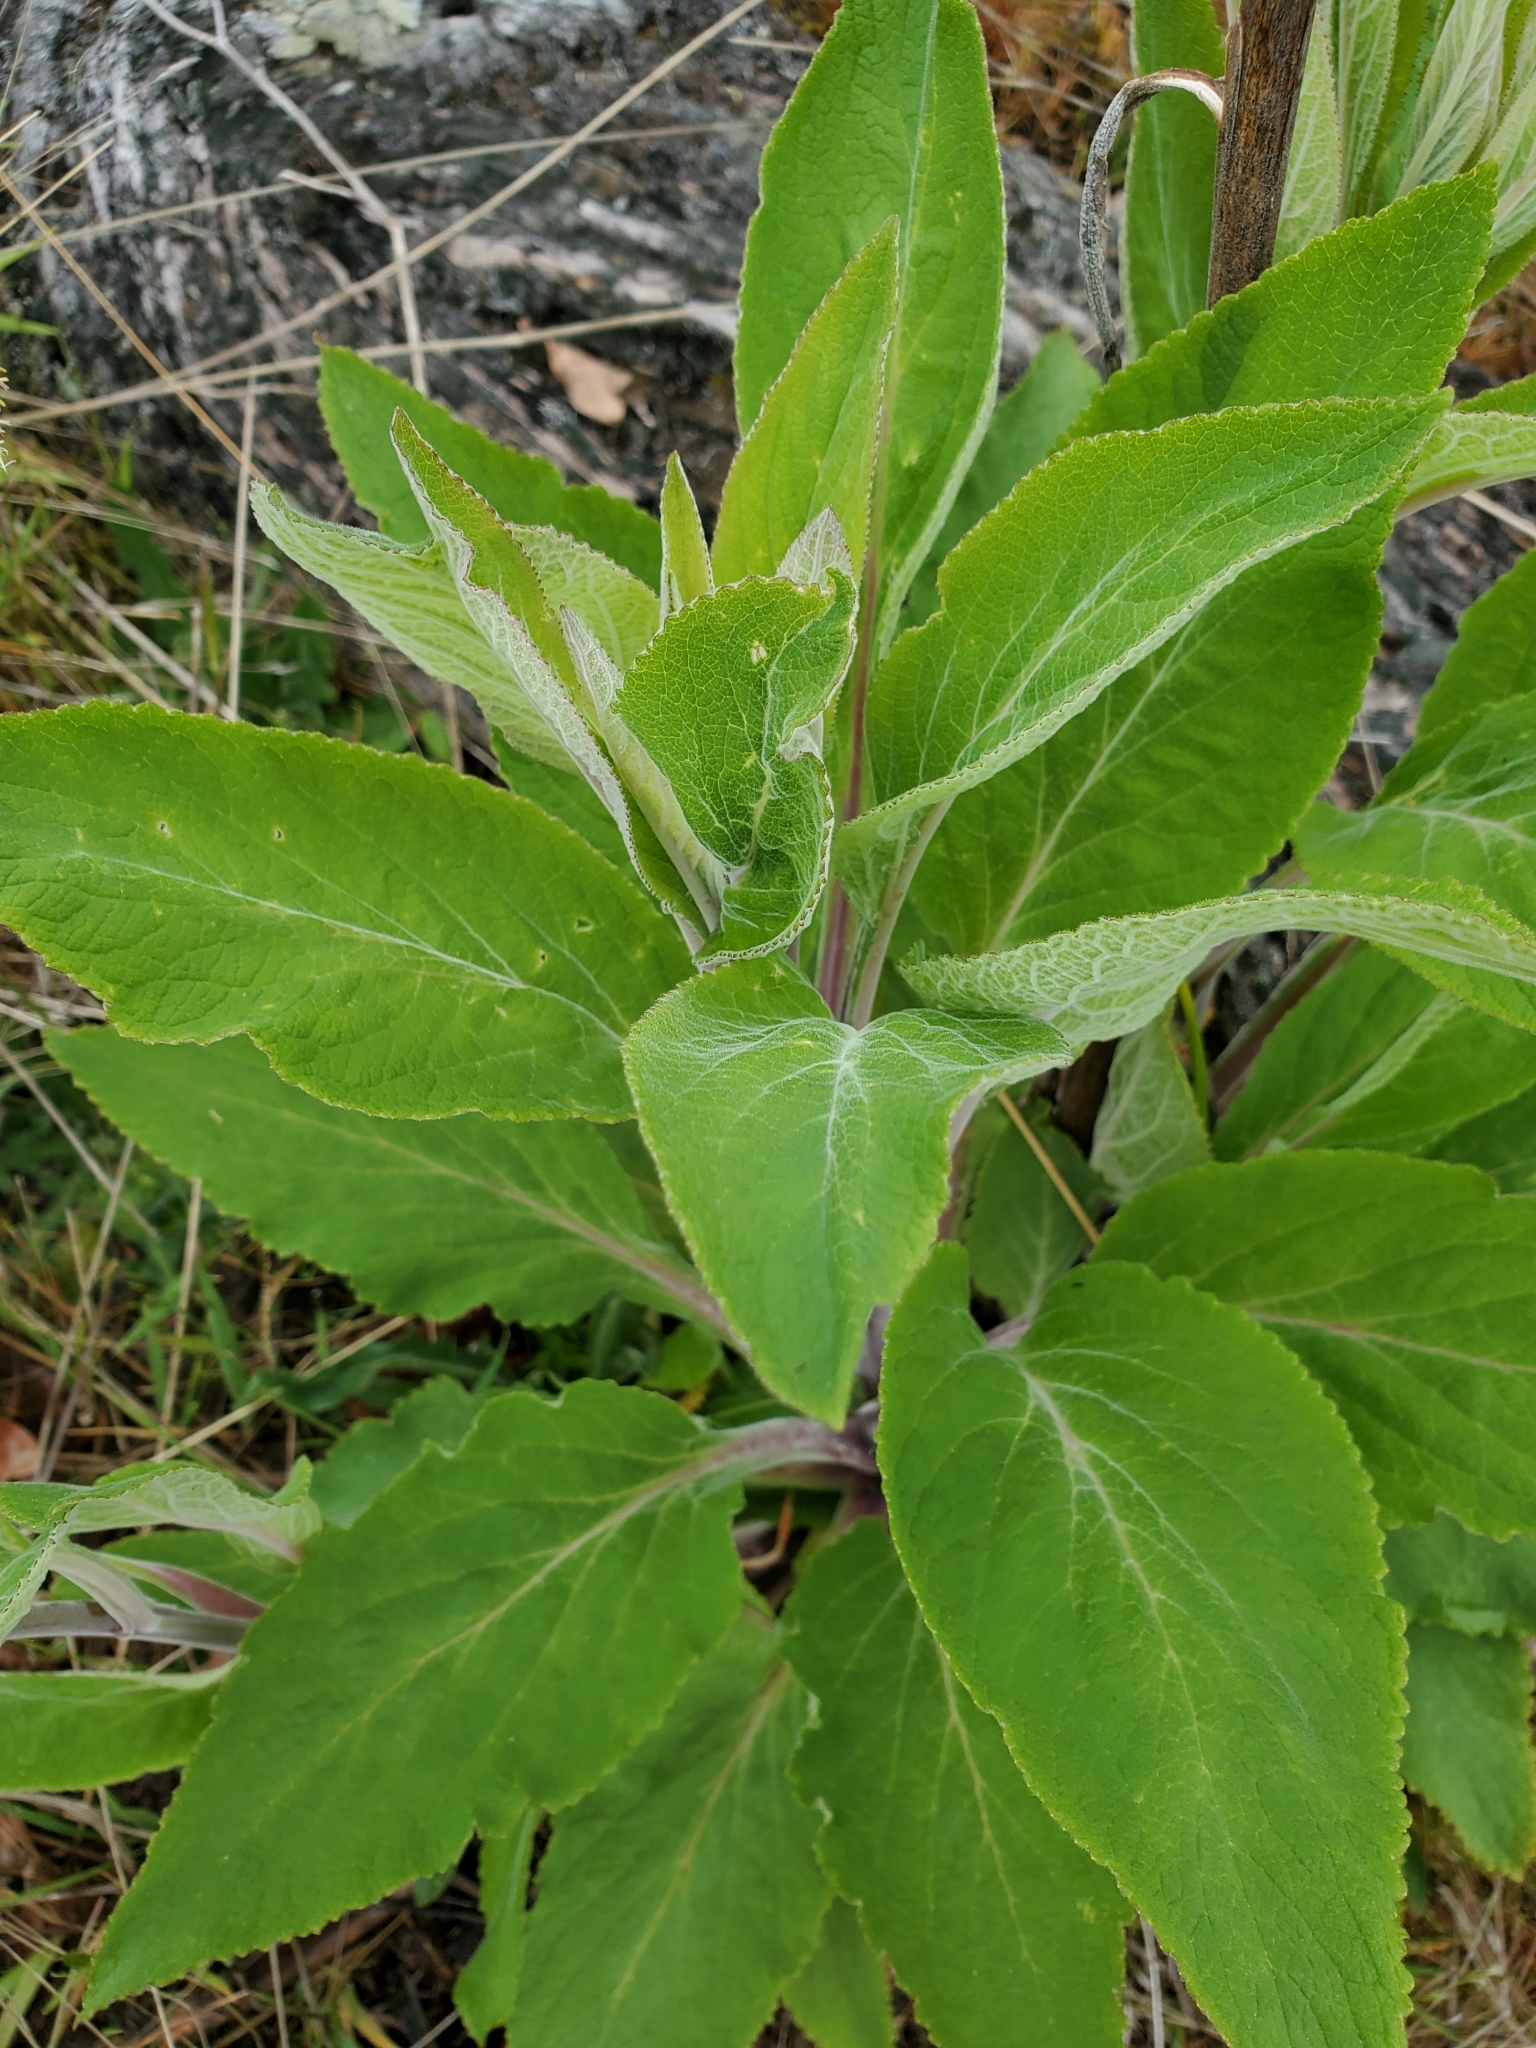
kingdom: Plantae
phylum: Tracheophyta
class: Magnoliopsida
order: Lamiales
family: Plantaginaceae
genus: Digitalis
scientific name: Digitalis purpurea
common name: Foxglove
